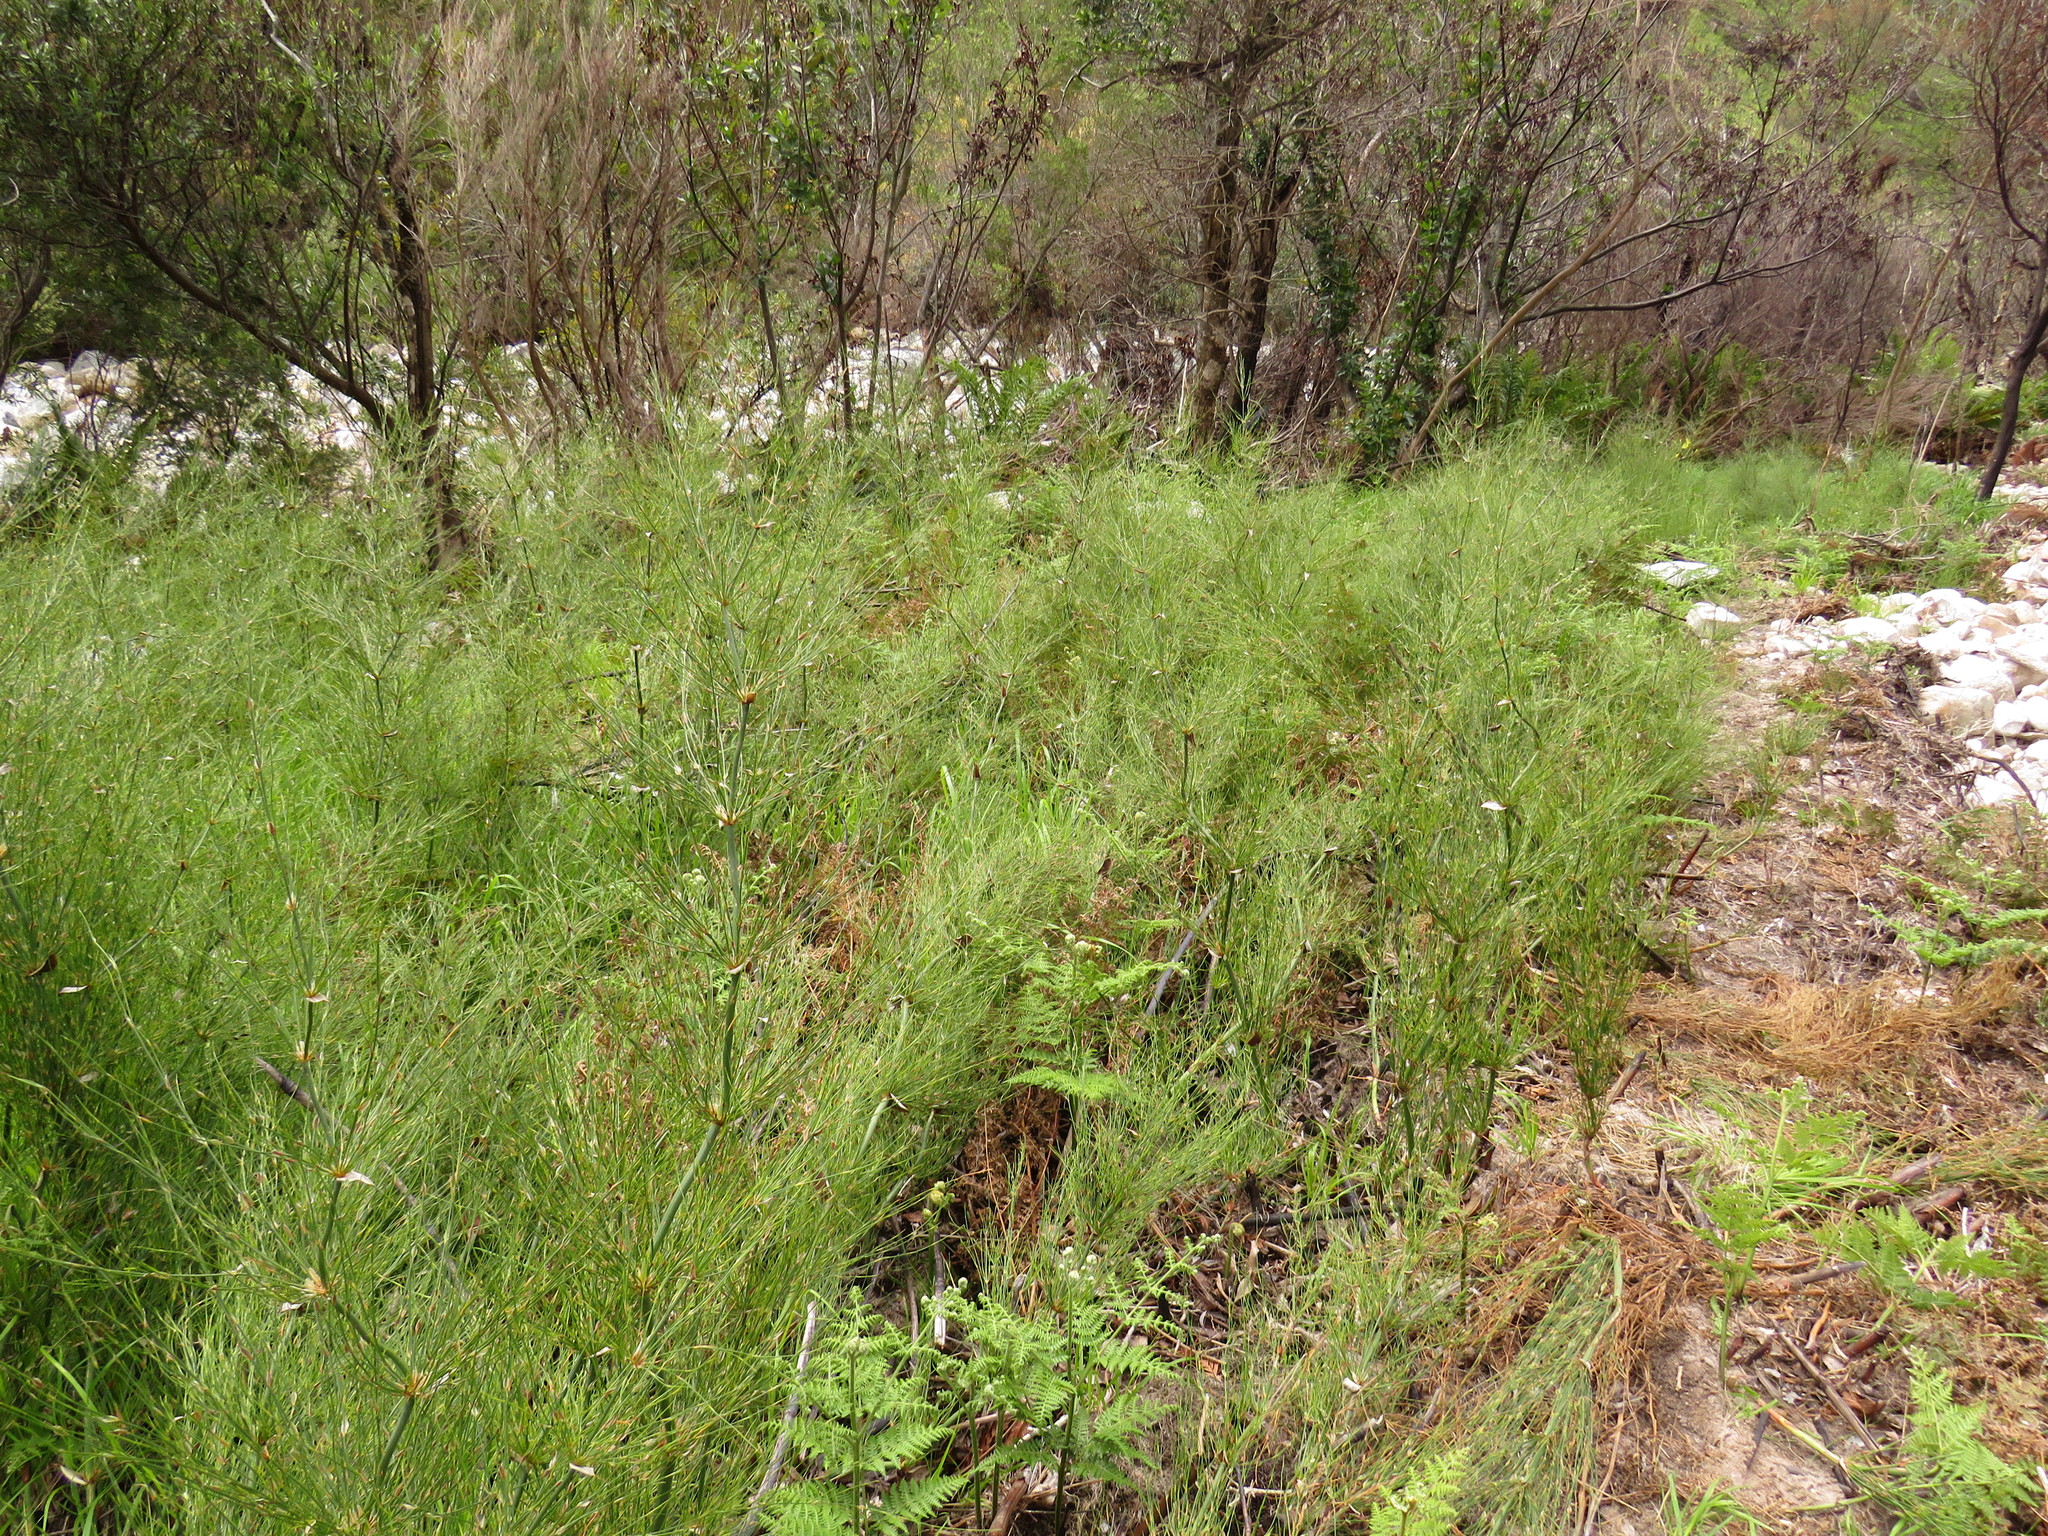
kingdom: Plantae
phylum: Tracheophyta
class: Liliopsida
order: Poales
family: Restionaceae
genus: Elegia
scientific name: Elegia capensis
